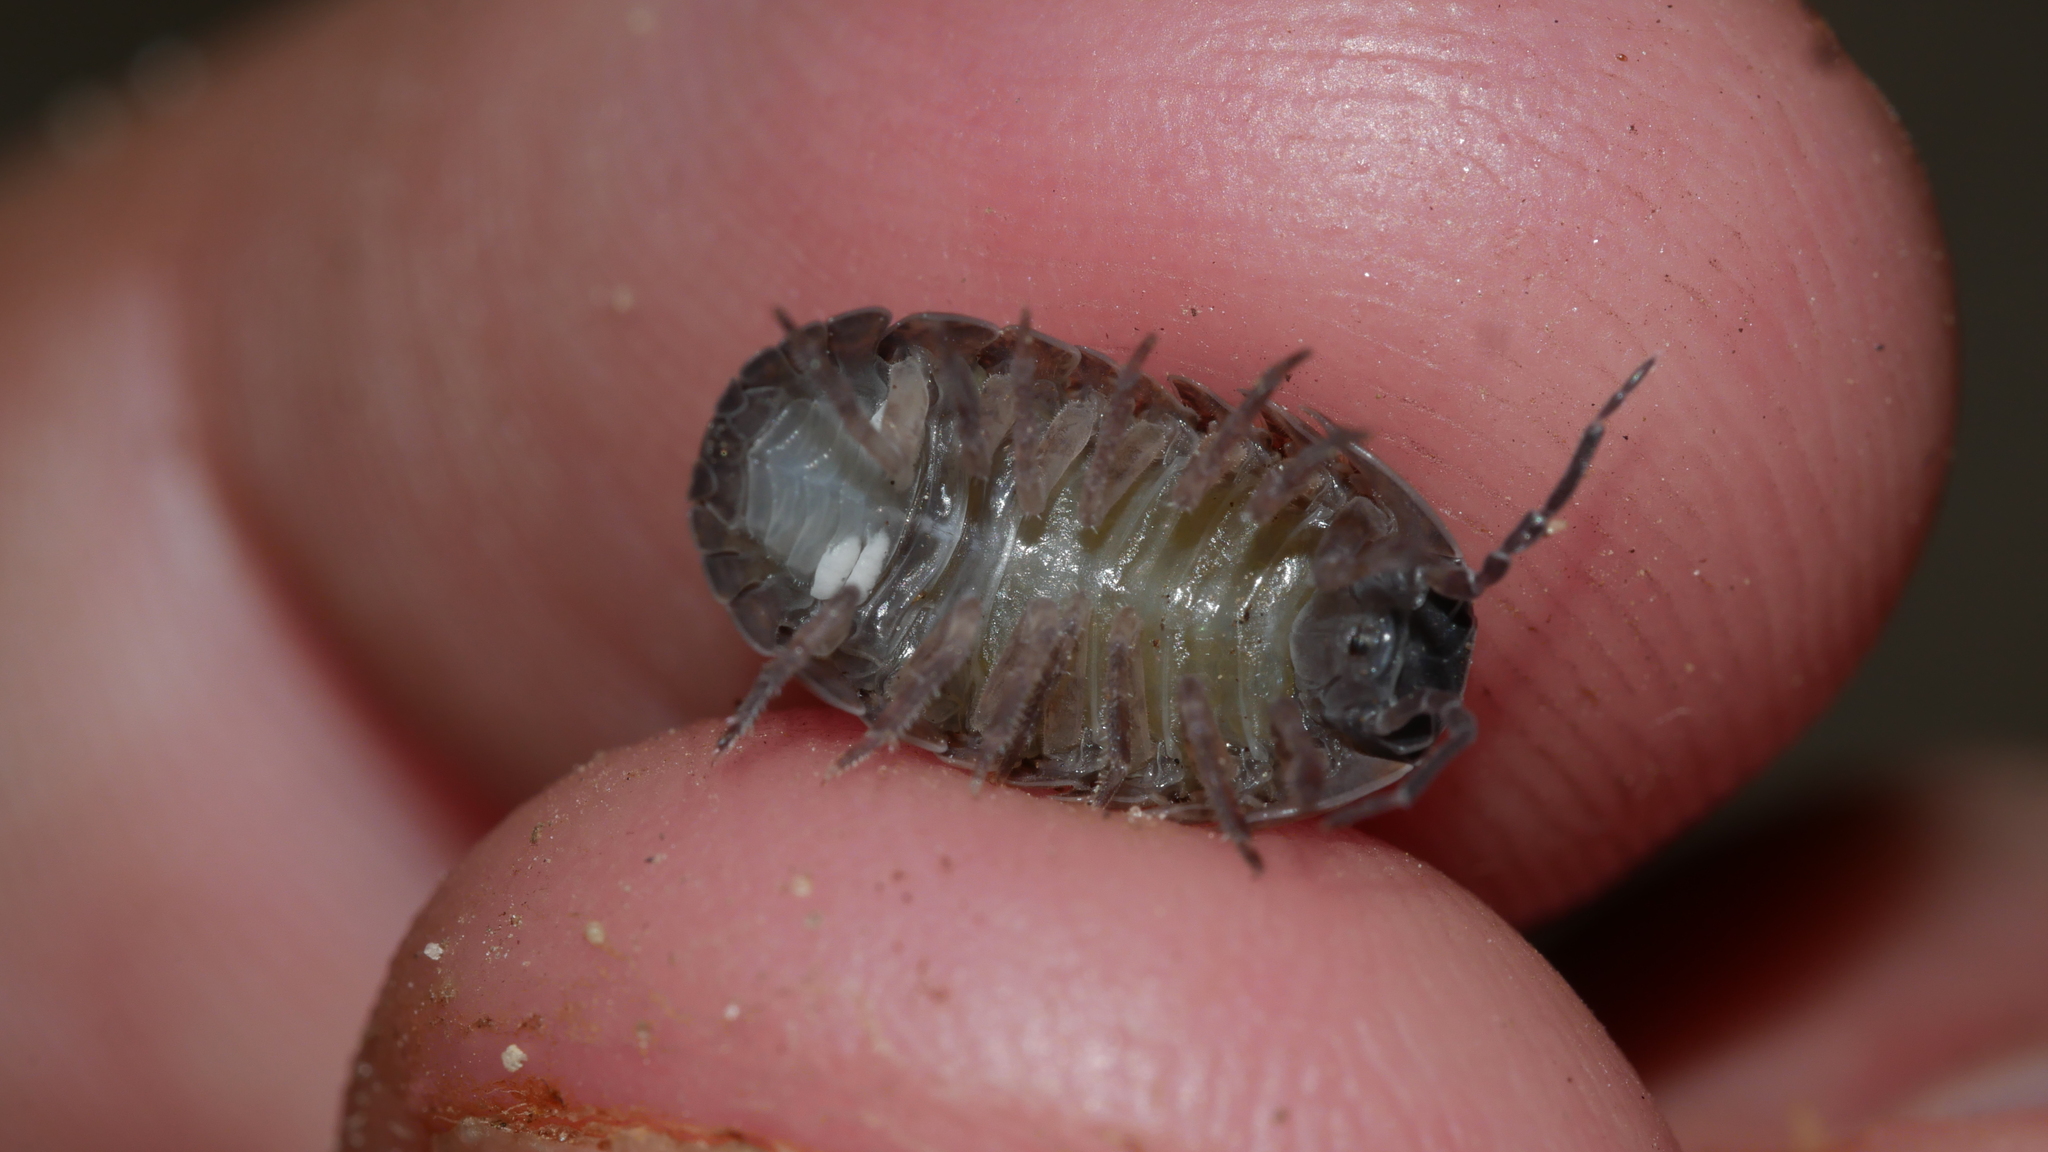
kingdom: Animalia
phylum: Arthropoda
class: Malacostraca
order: Isopoda
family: Armadillidiidae
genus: Armadillidium
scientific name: Armadillidium vulgare
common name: Common pill woodlouse
